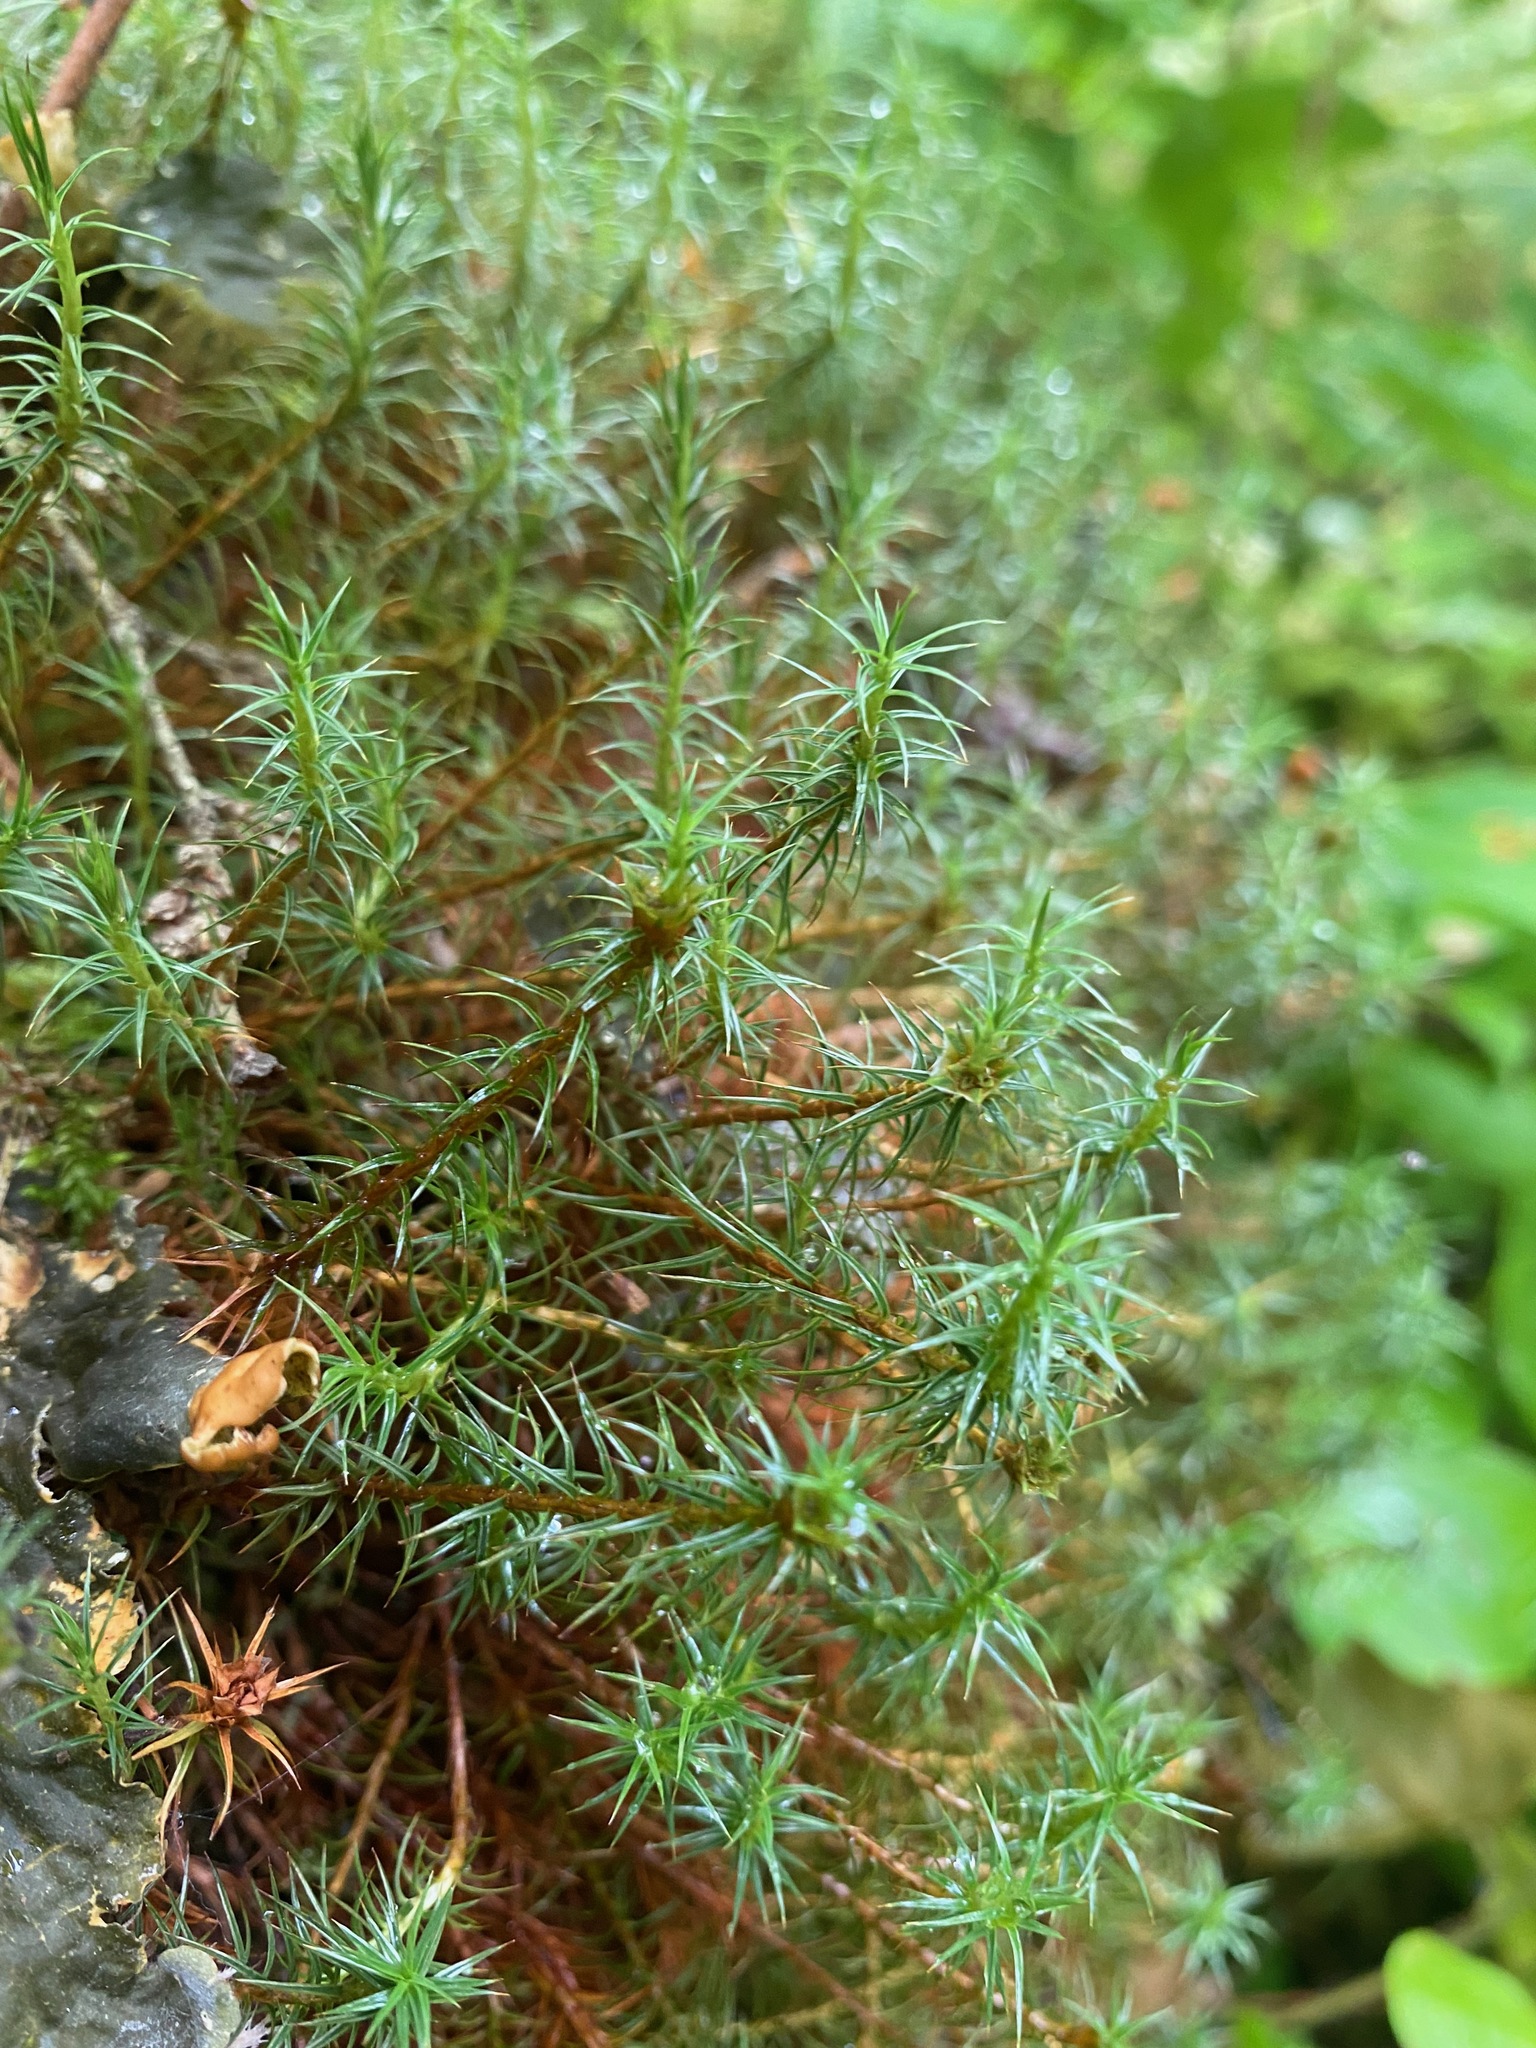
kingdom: Plantae
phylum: Bryophyta
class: Polytrichopsida
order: Polytrichales
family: Polytrichaceae
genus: Polytrichum
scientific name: Polytrichum juniperinum
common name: Juniper haircap moss
